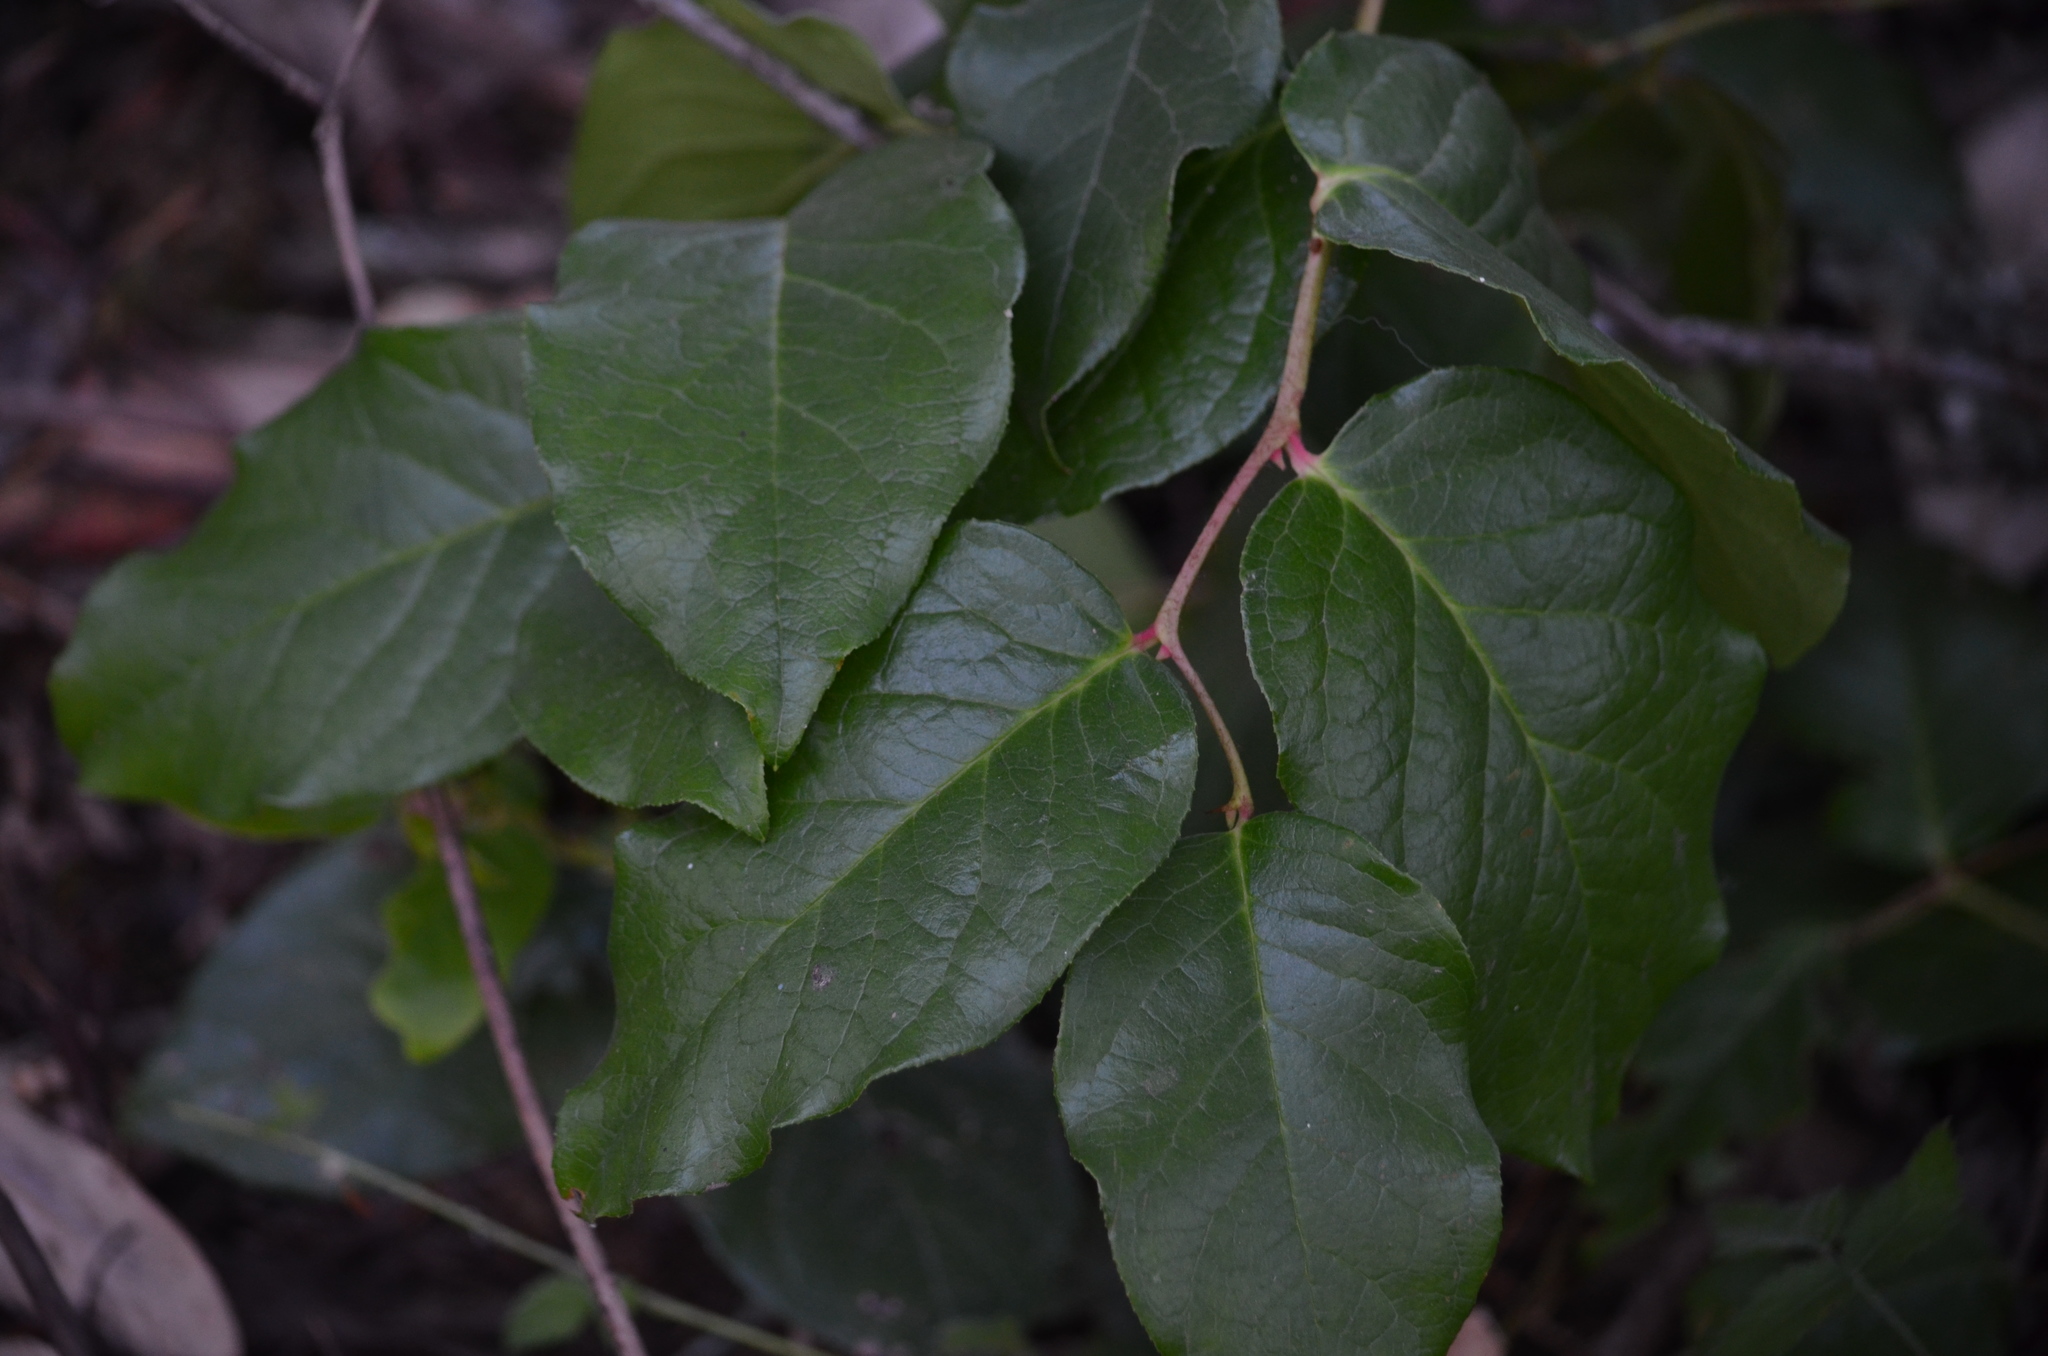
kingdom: Plantae
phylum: Tracheophyta
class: Magnoliopsida
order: Ericales
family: Ericaceae
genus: Gaultheria
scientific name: Gaultheria shallon
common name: Shallon
